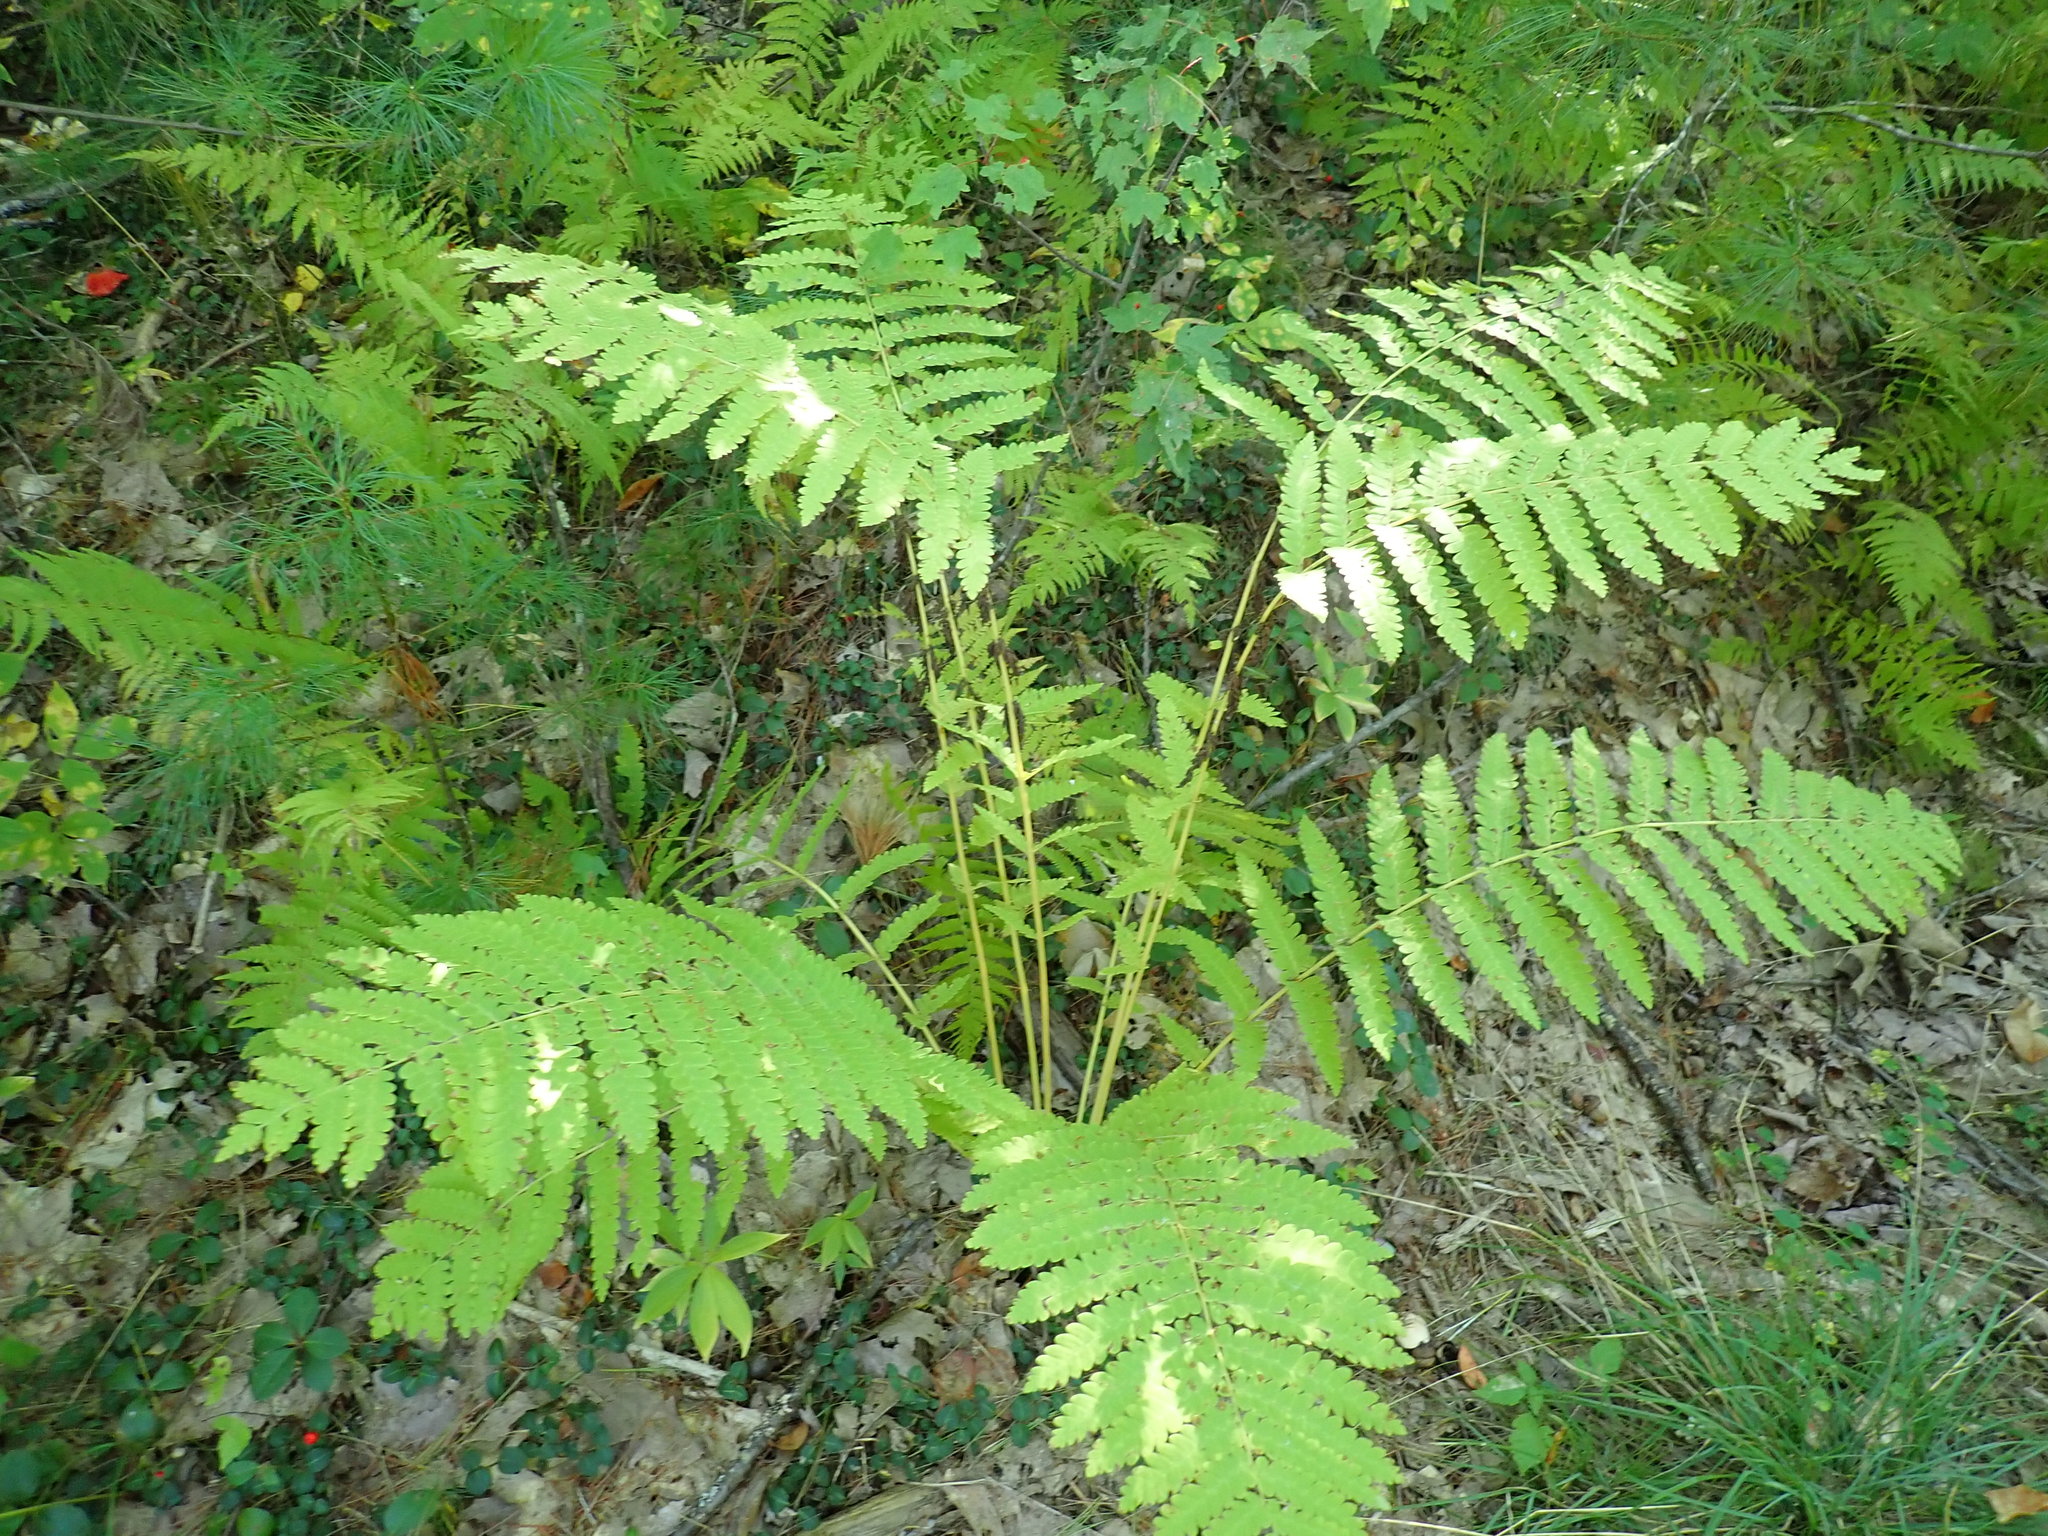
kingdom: Plantae
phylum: Tracheophyta
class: Polypodiopsida
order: Osmundales
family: Osmundaceae
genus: Claytosmunda
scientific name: Claytosmunda claytoniana
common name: Clayton's fern
